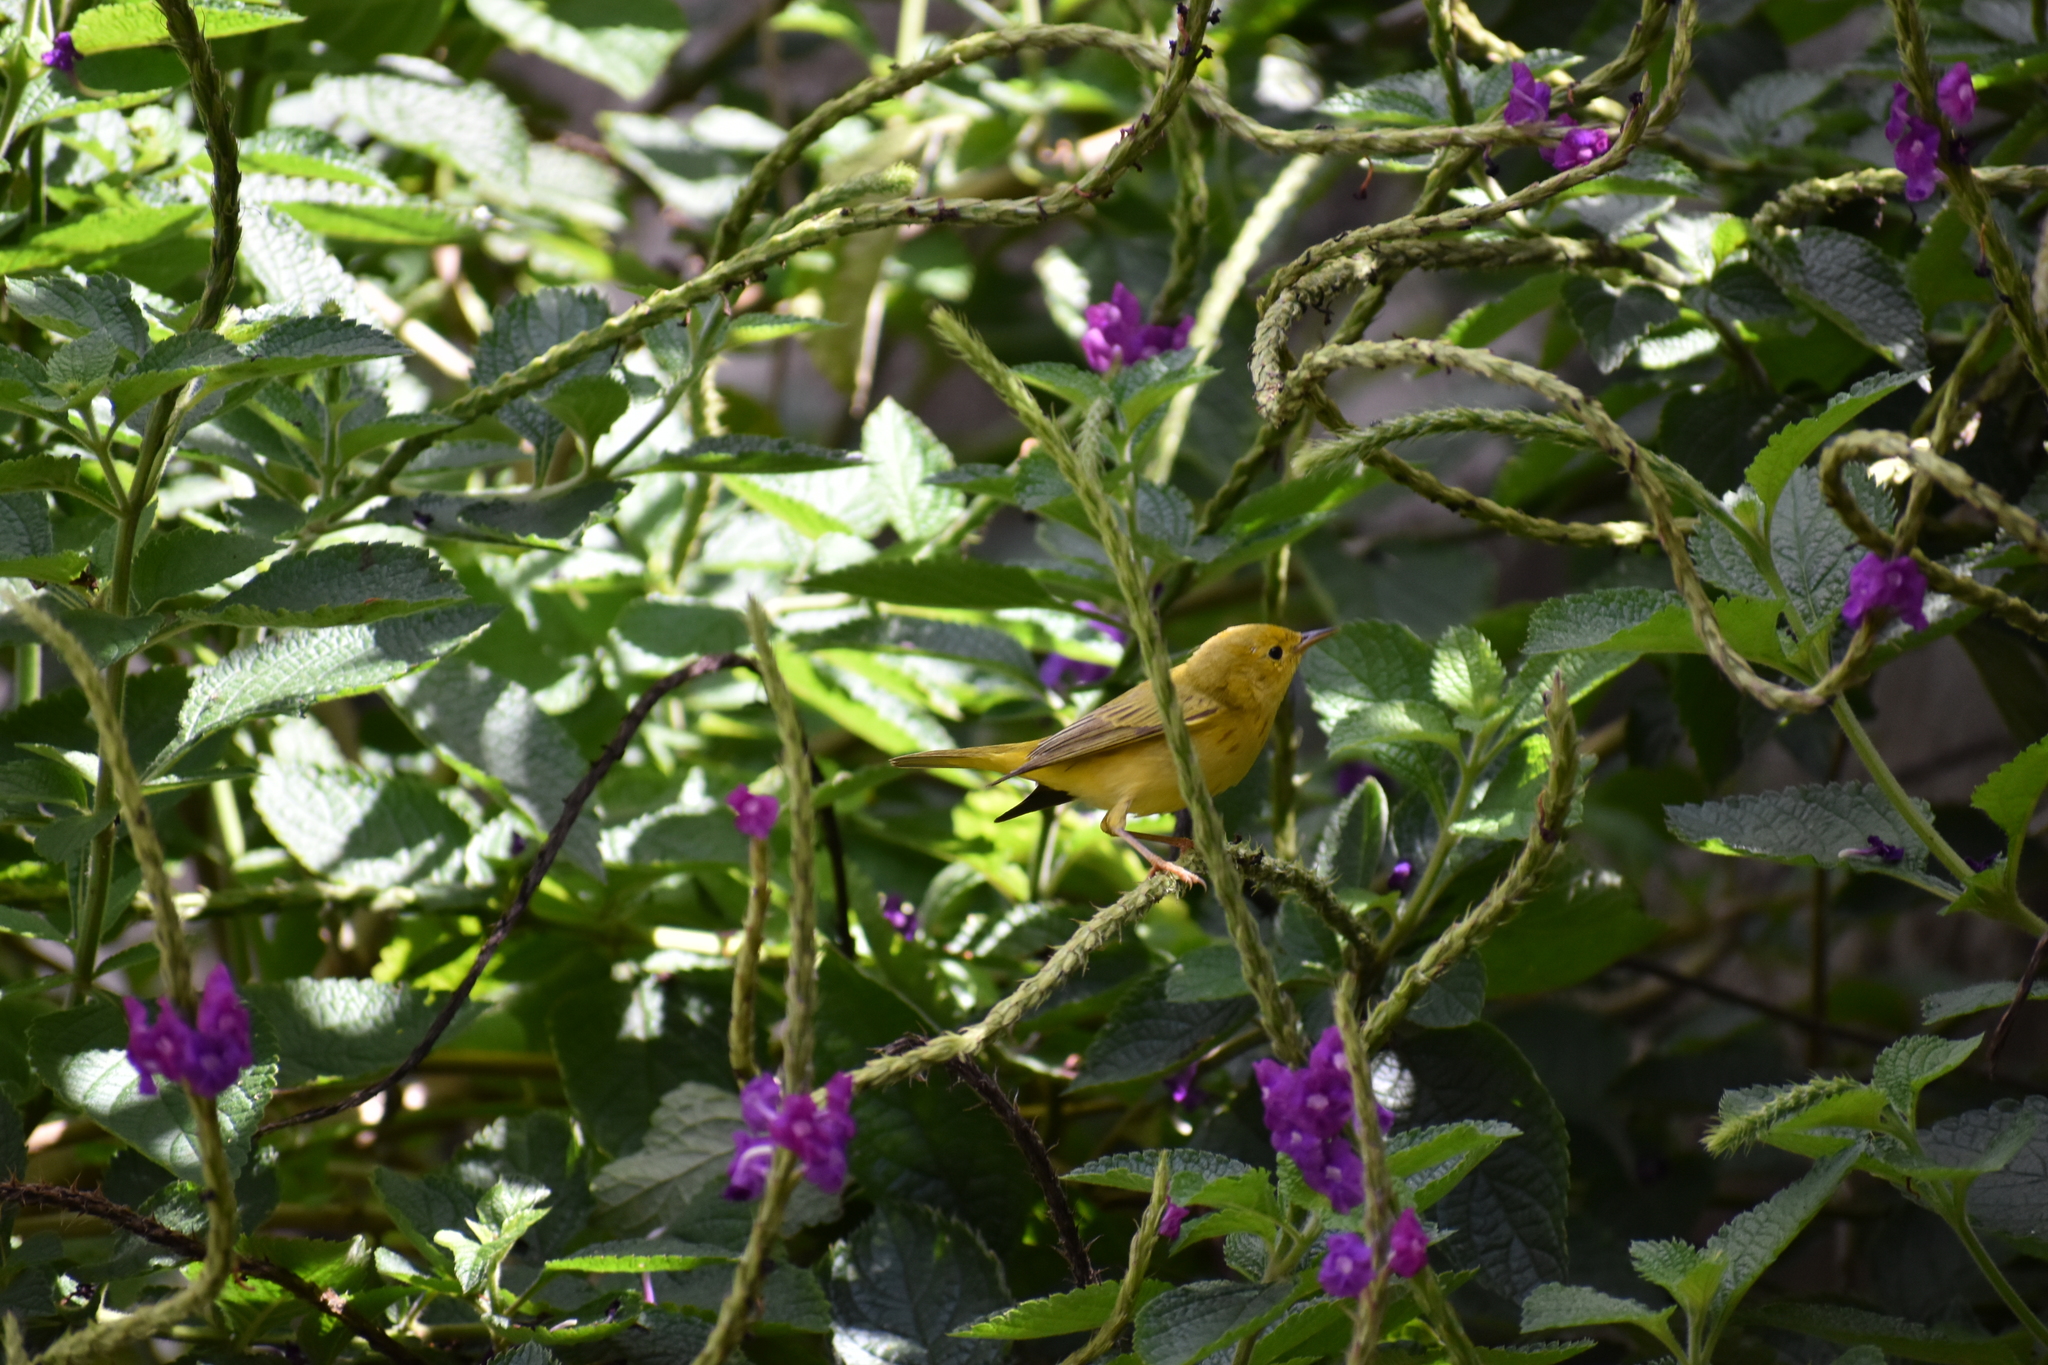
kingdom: Animalia
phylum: Chordata
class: Aves
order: Passeriformes
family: Parulidae
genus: Setophaga
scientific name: Setophaga petechia
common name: Yellow warbler
